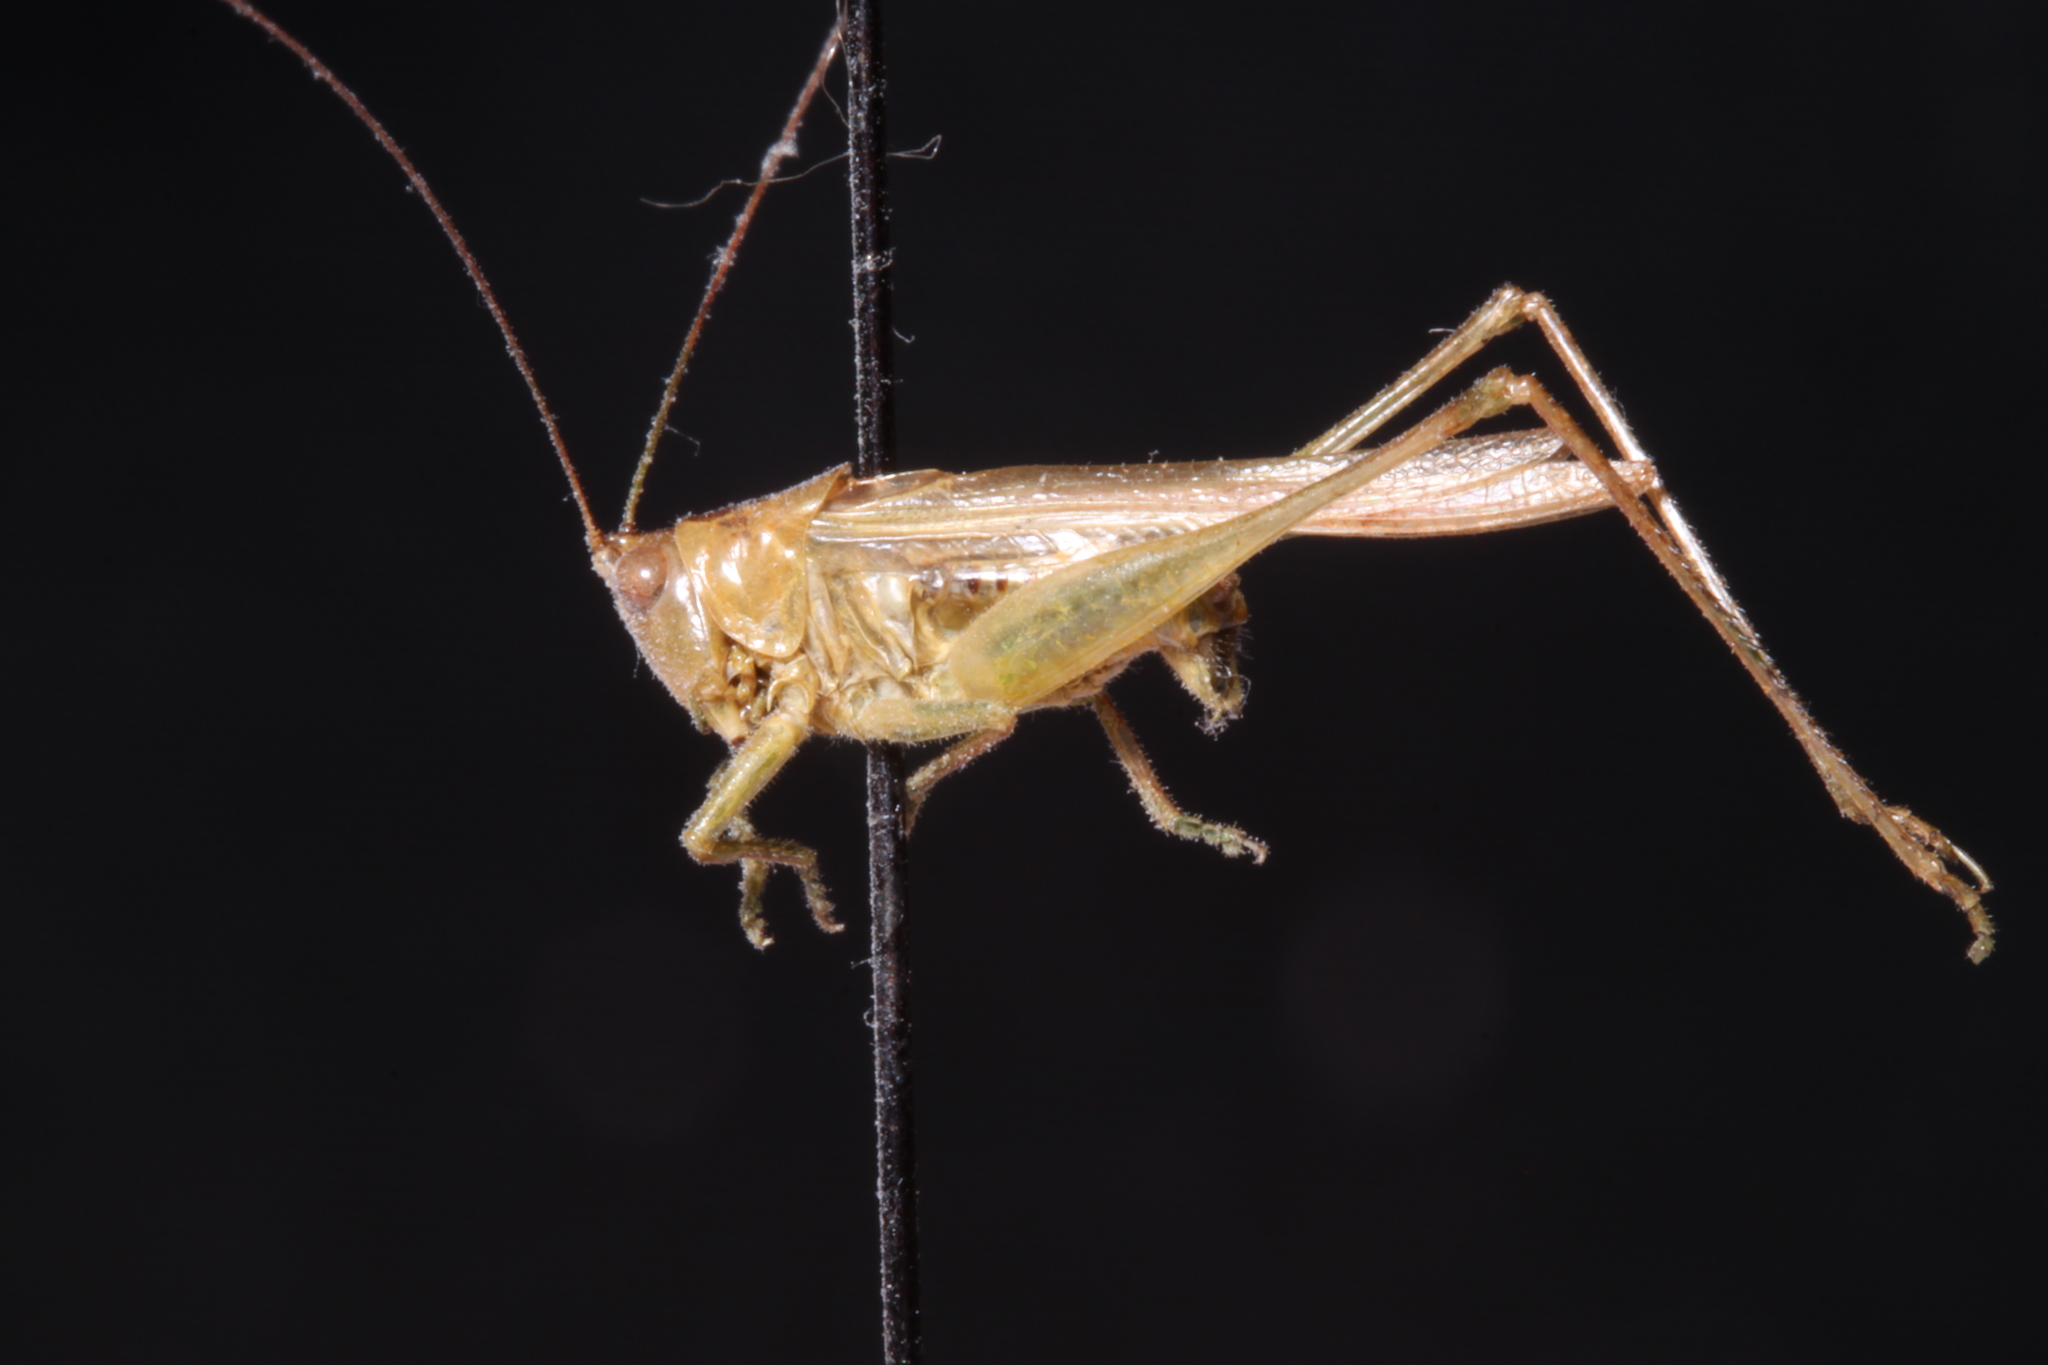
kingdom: Animalia
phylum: Arthropoda
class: Insecta
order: Orthoptera
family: Tettigoniidae
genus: Conocephalus
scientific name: Conocephalus fasciatus
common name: Slender meadow katydid
